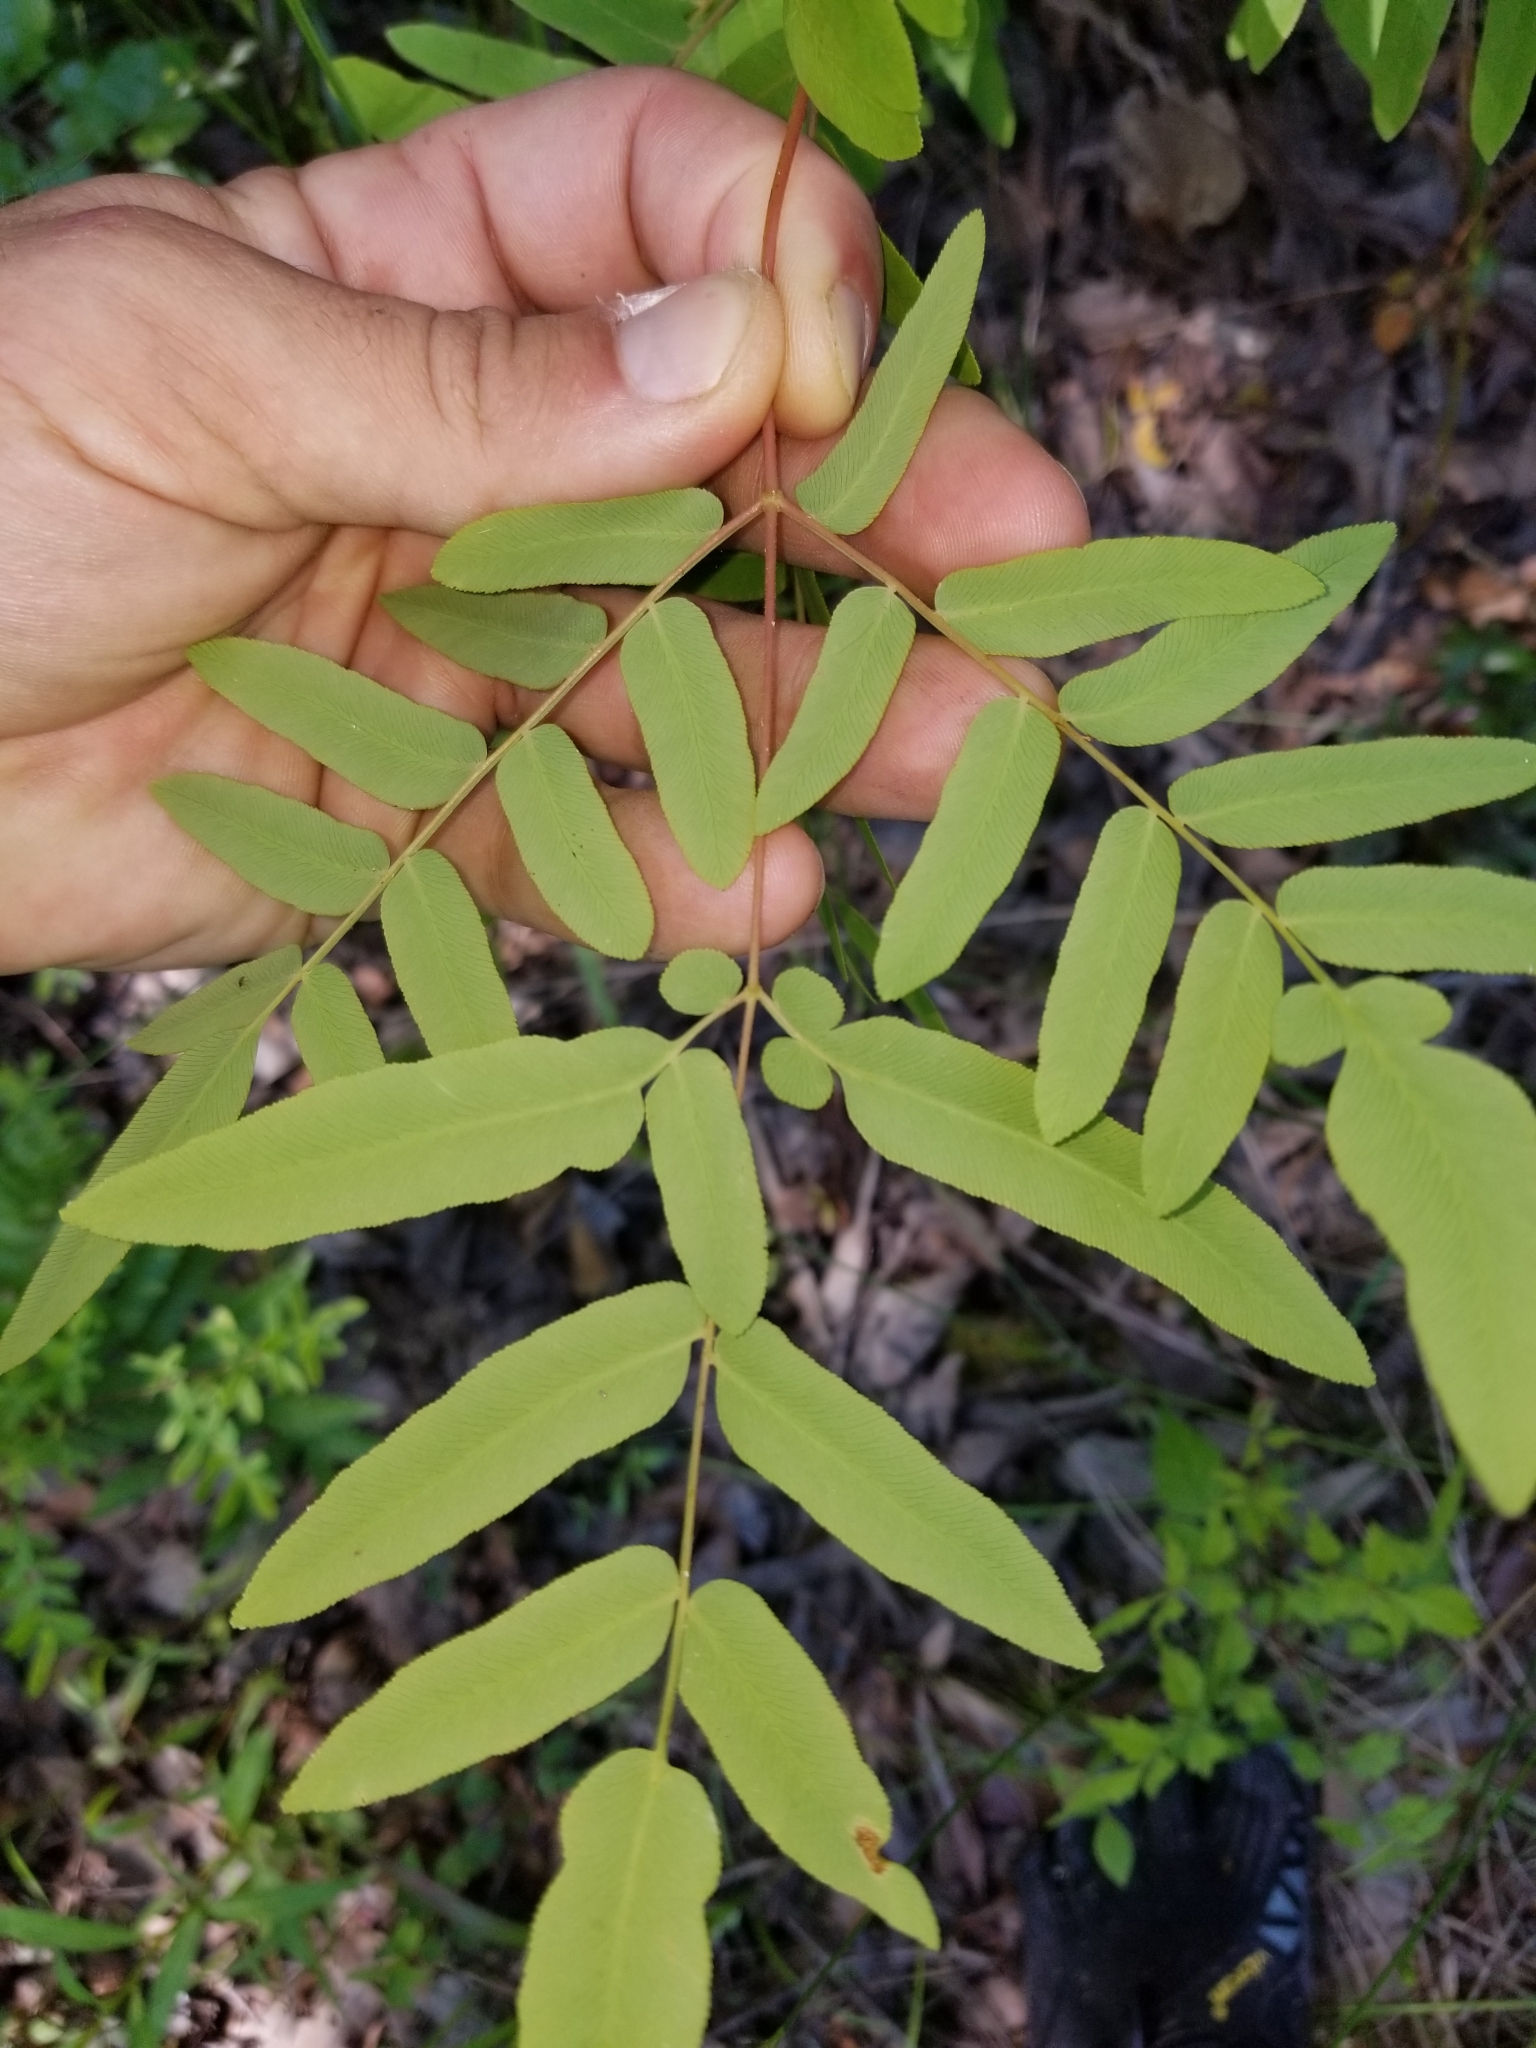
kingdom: Plantae
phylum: Tracheophyta
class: Polypodiopsida
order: Osmundales
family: Osmundaceae
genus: Osmunda
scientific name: Osmunda spectabilis
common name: American royal fern
